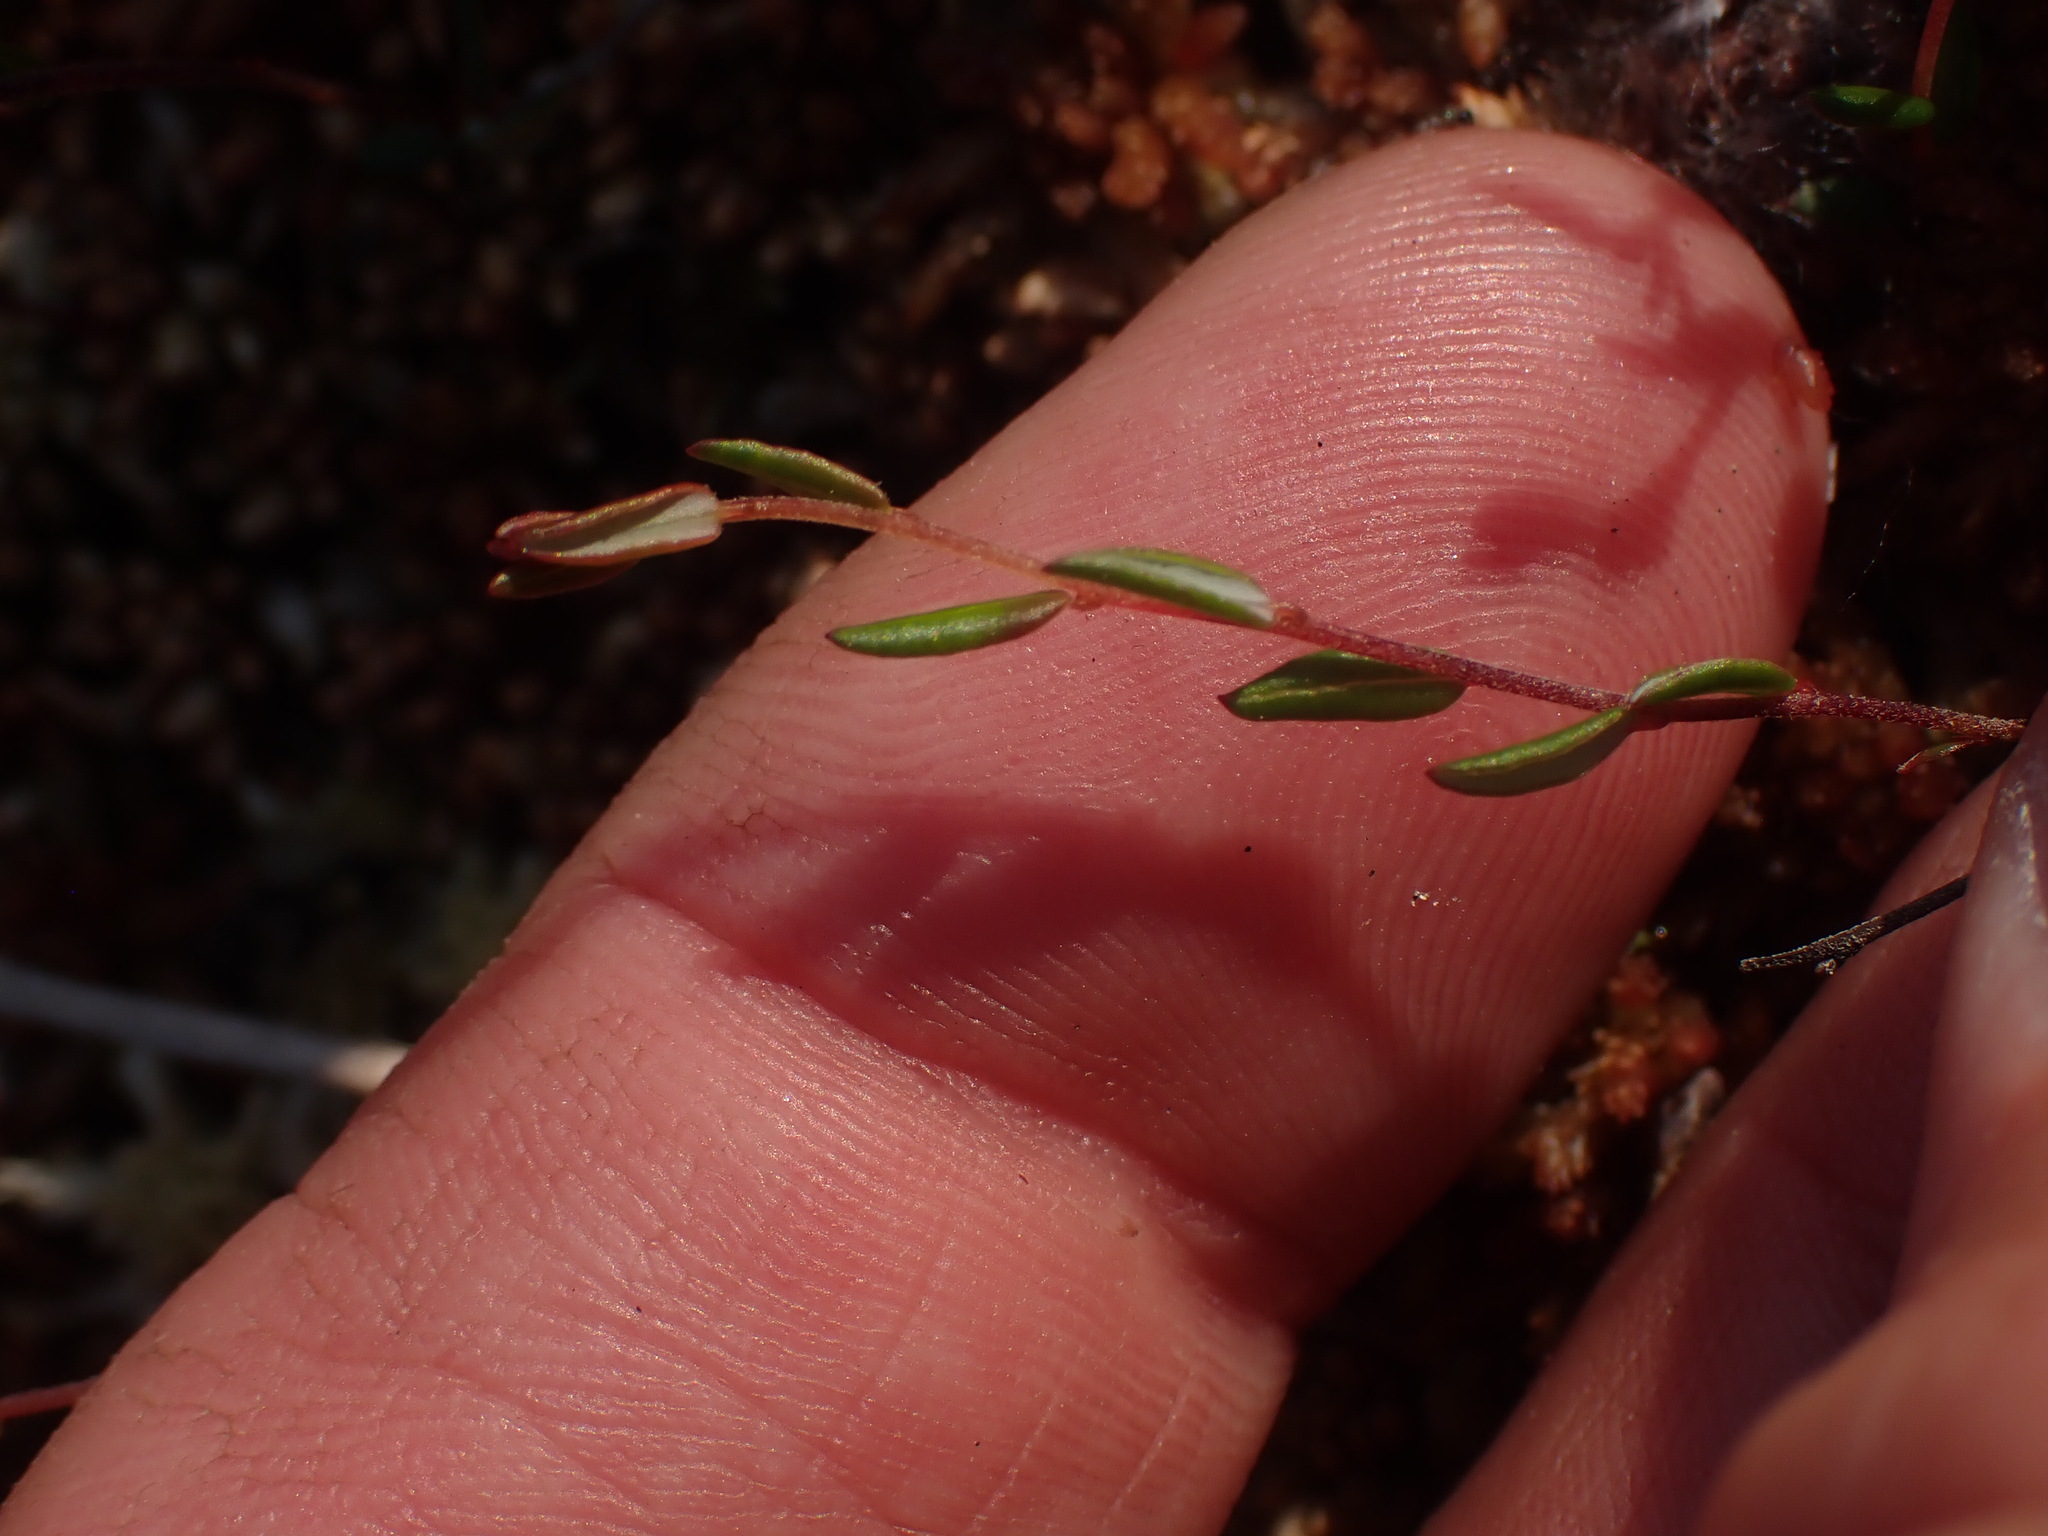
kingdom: Plantae
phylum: Tracheophyta
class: Magnoliopsida
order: Ericales
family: Ericaceae
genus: Vaccinium
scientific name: Vaccinium oxycoccos
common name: Cranberry
